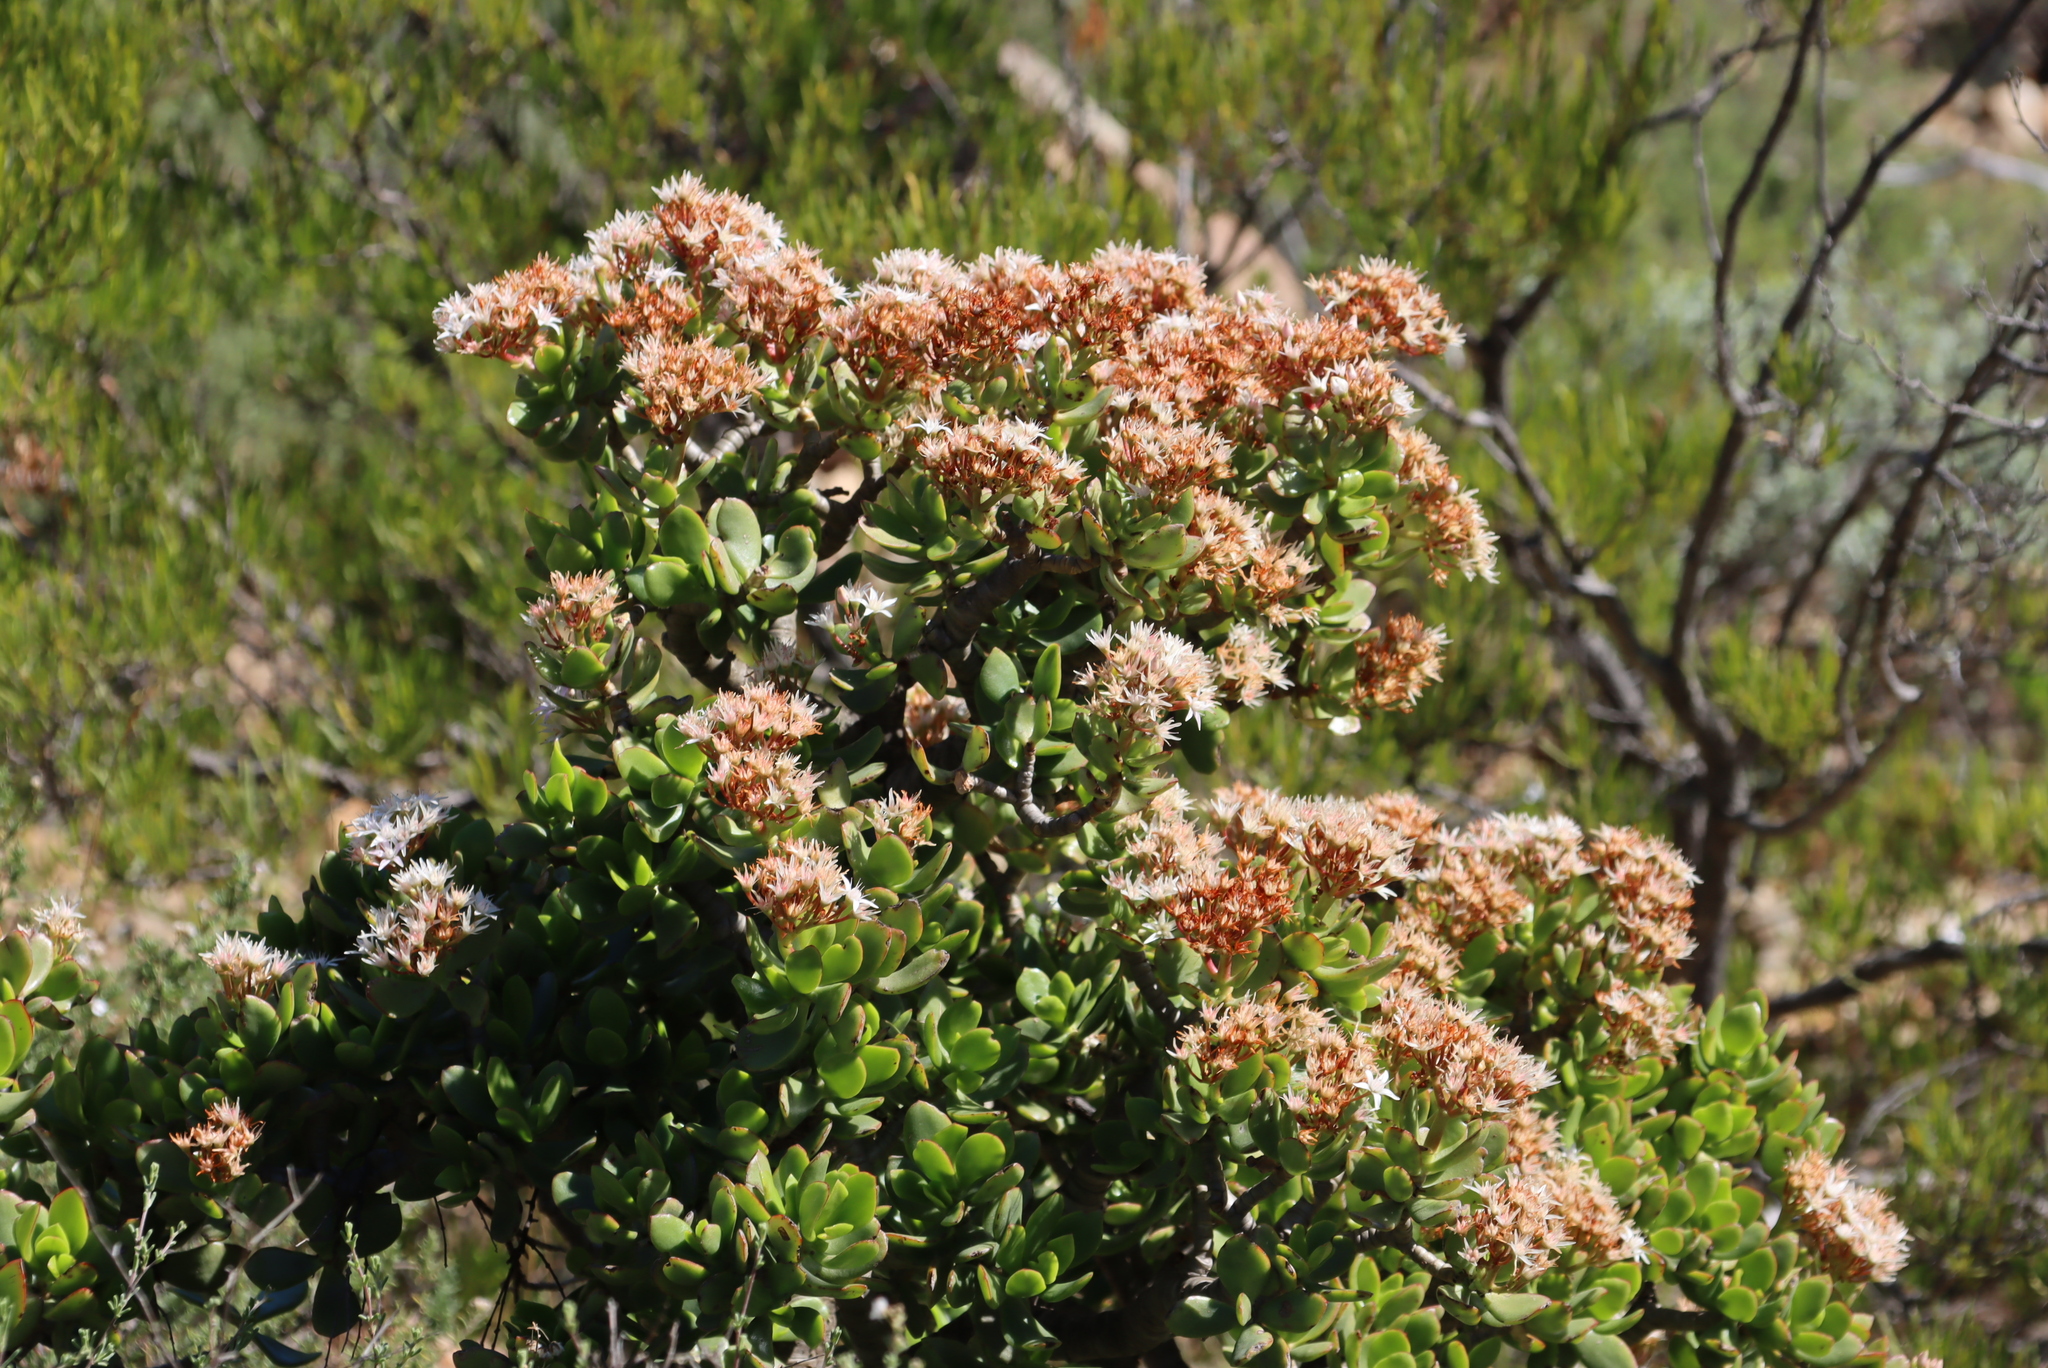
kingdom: Plantae
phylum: Tracheophyta
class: Magnoliopsida
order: Saxifragales
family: Crassulaceae
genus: Crassula
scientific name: Crassula ovata
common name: Jade plant
